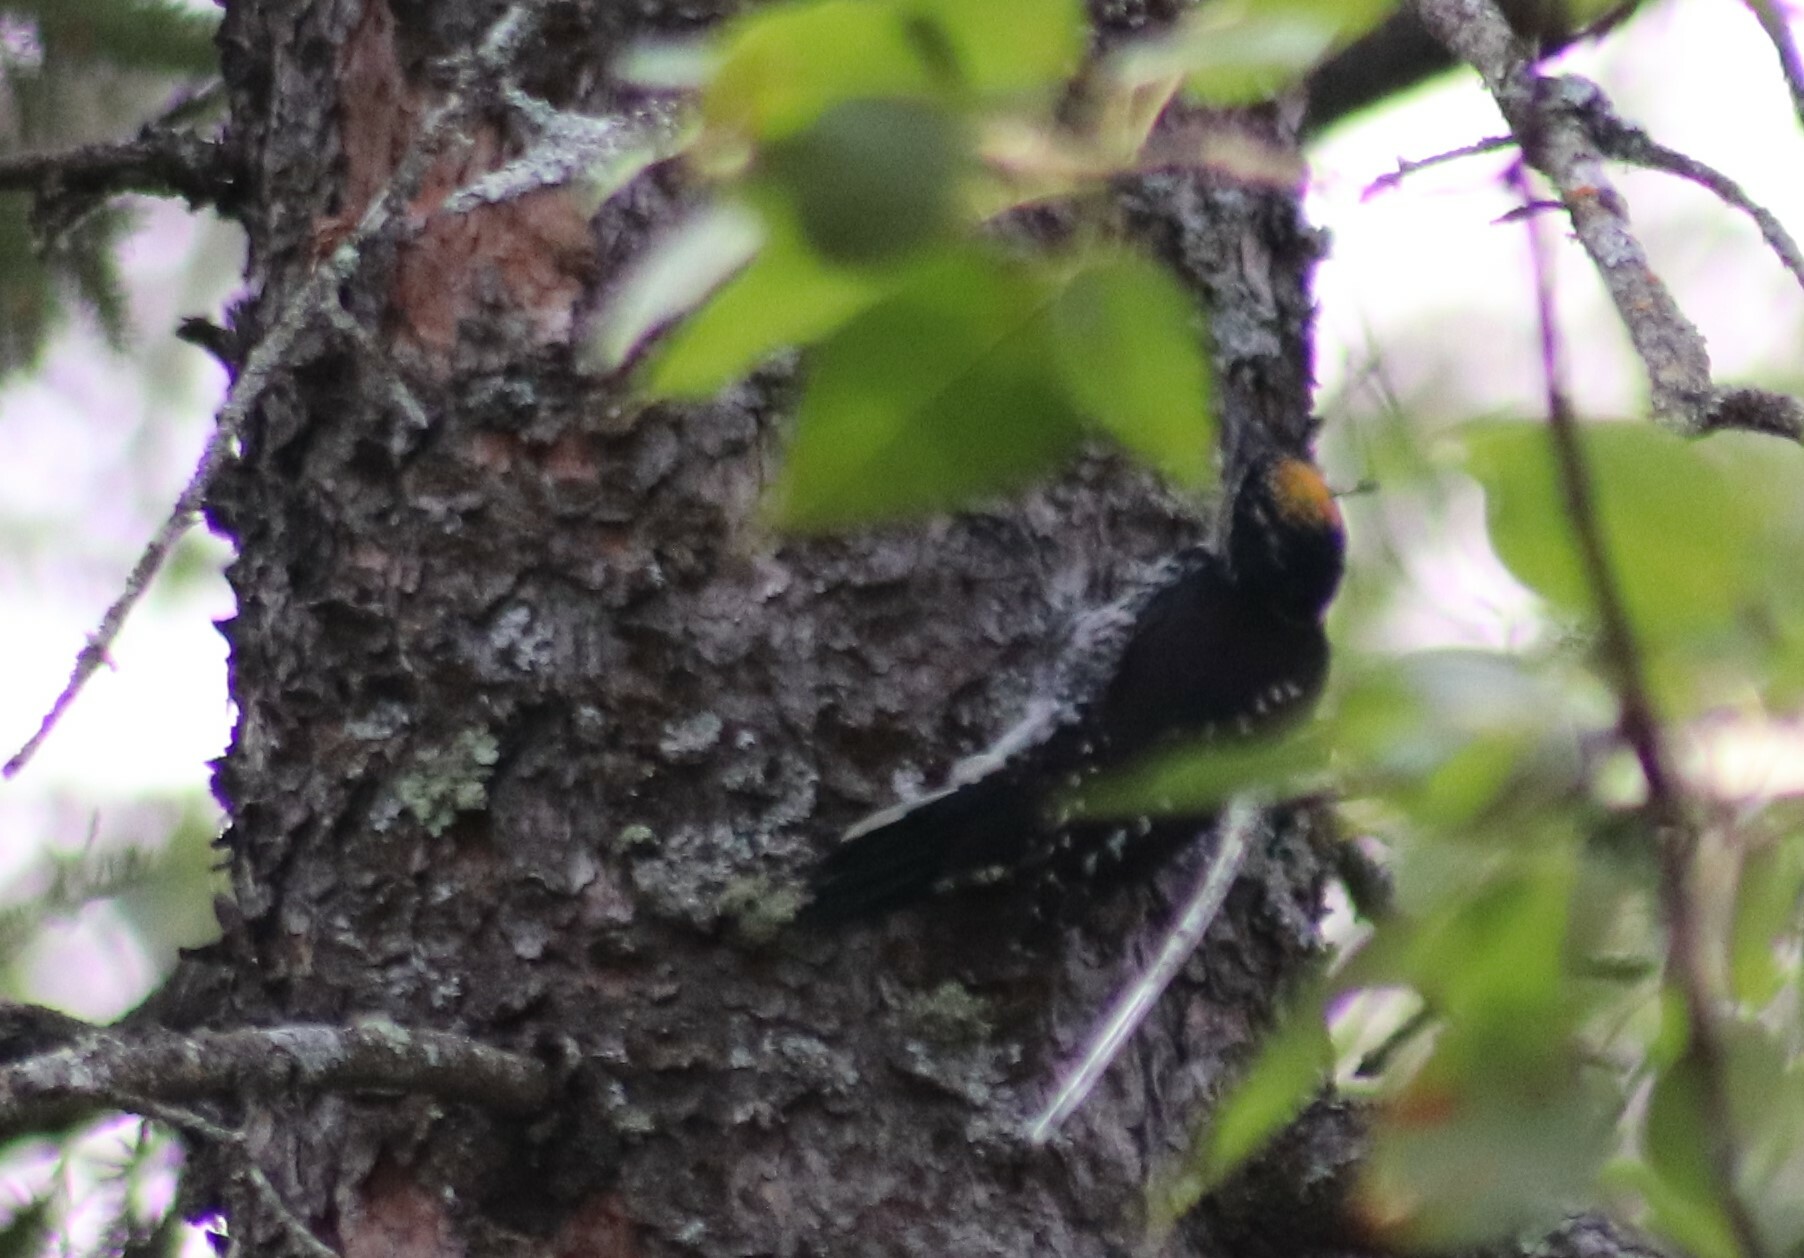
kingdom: Animalia
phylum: Chordata
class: Aves
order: Piciformes
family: Picidae
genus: Picoides
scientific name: Picoides dorsalis
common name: American three-toed woodpecker
